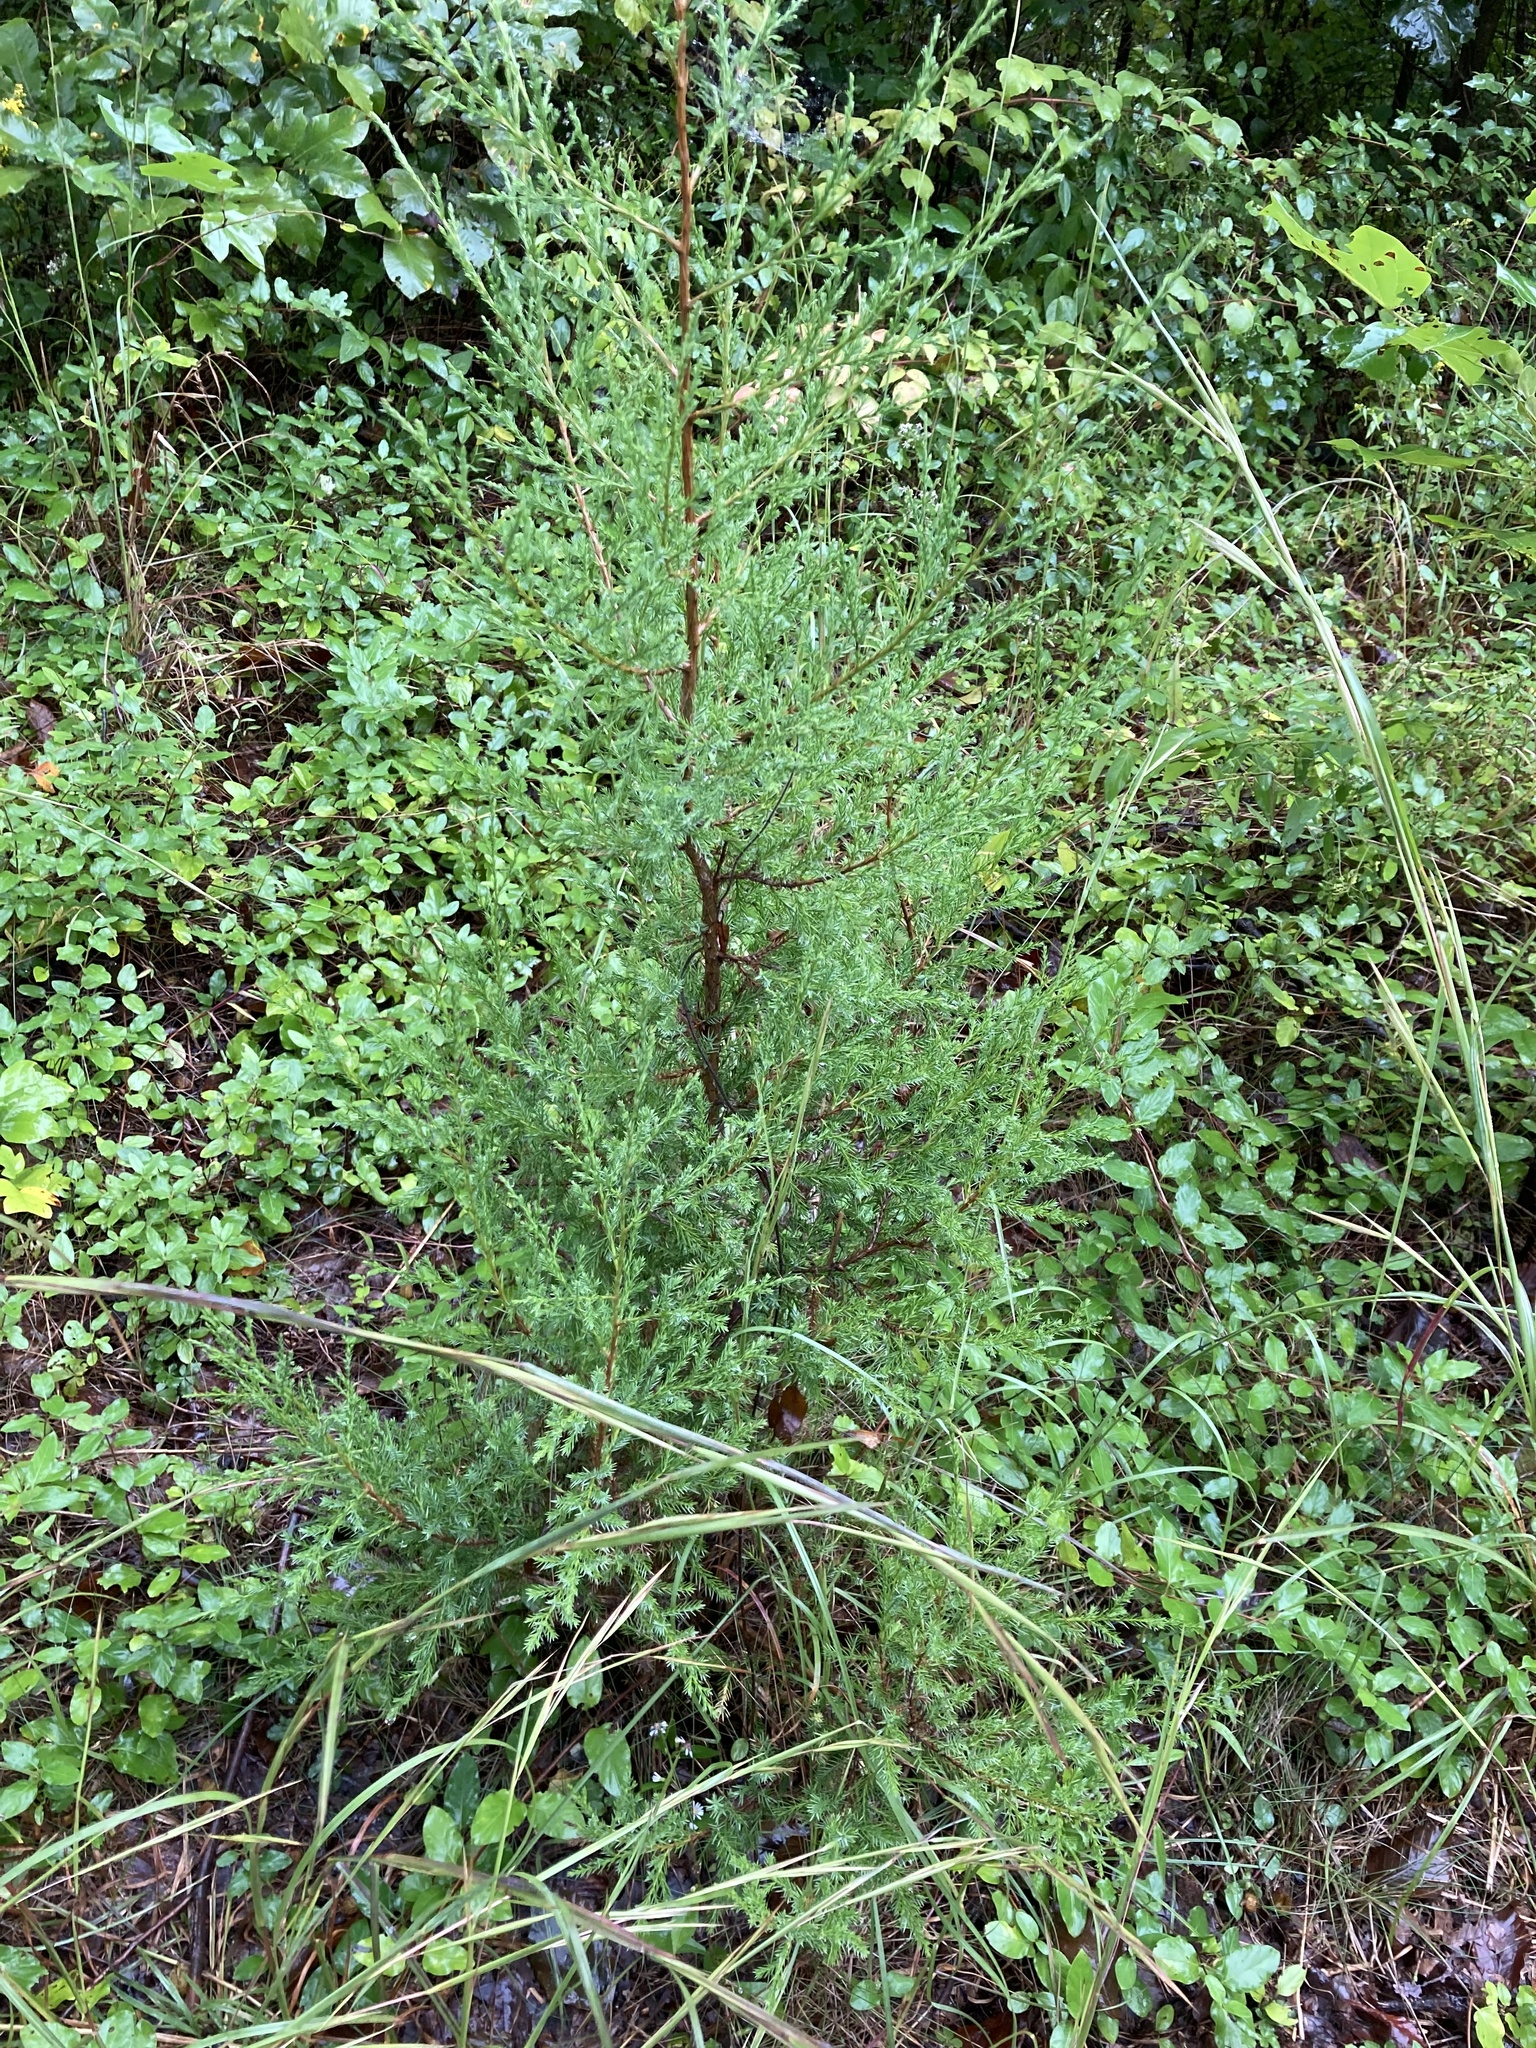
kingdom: Plantae
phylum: Tracheophyta
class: Pinopsida
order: Pinales
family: Cupressaceae
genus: Juniperus
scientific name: Juniperus virginiana
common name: Red juniper
